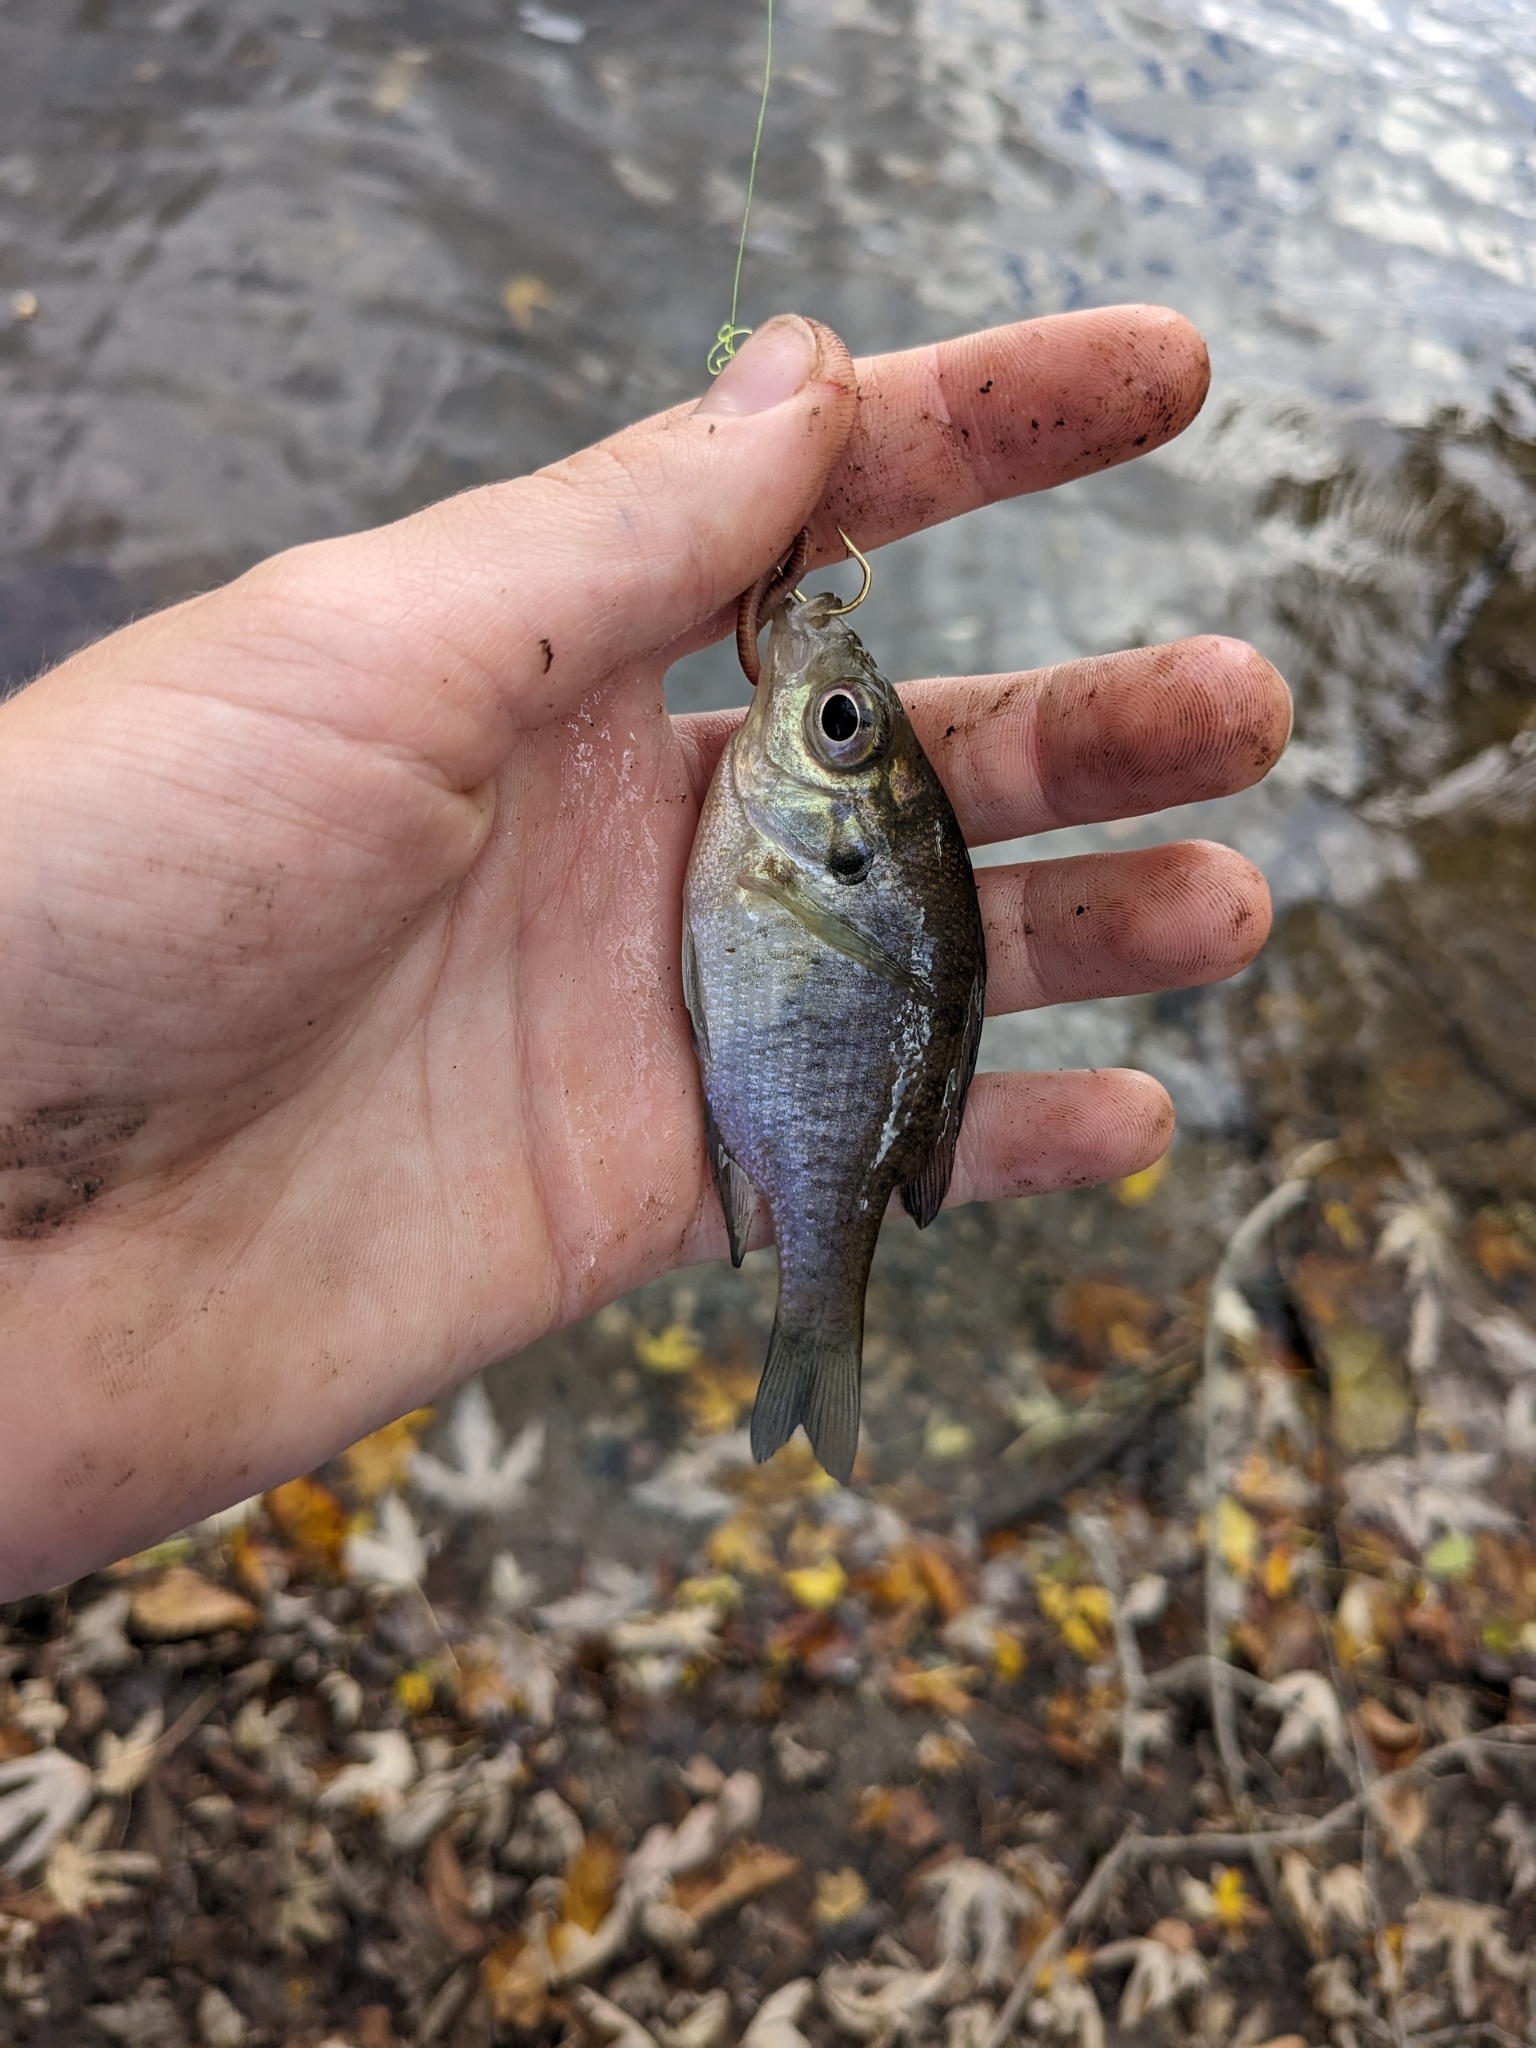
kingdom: Animalia
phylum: Chordata
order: Perciformes
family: Centrarchidae
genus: Lepomis
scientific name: Lepomis macrochirus
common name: Bluegill
